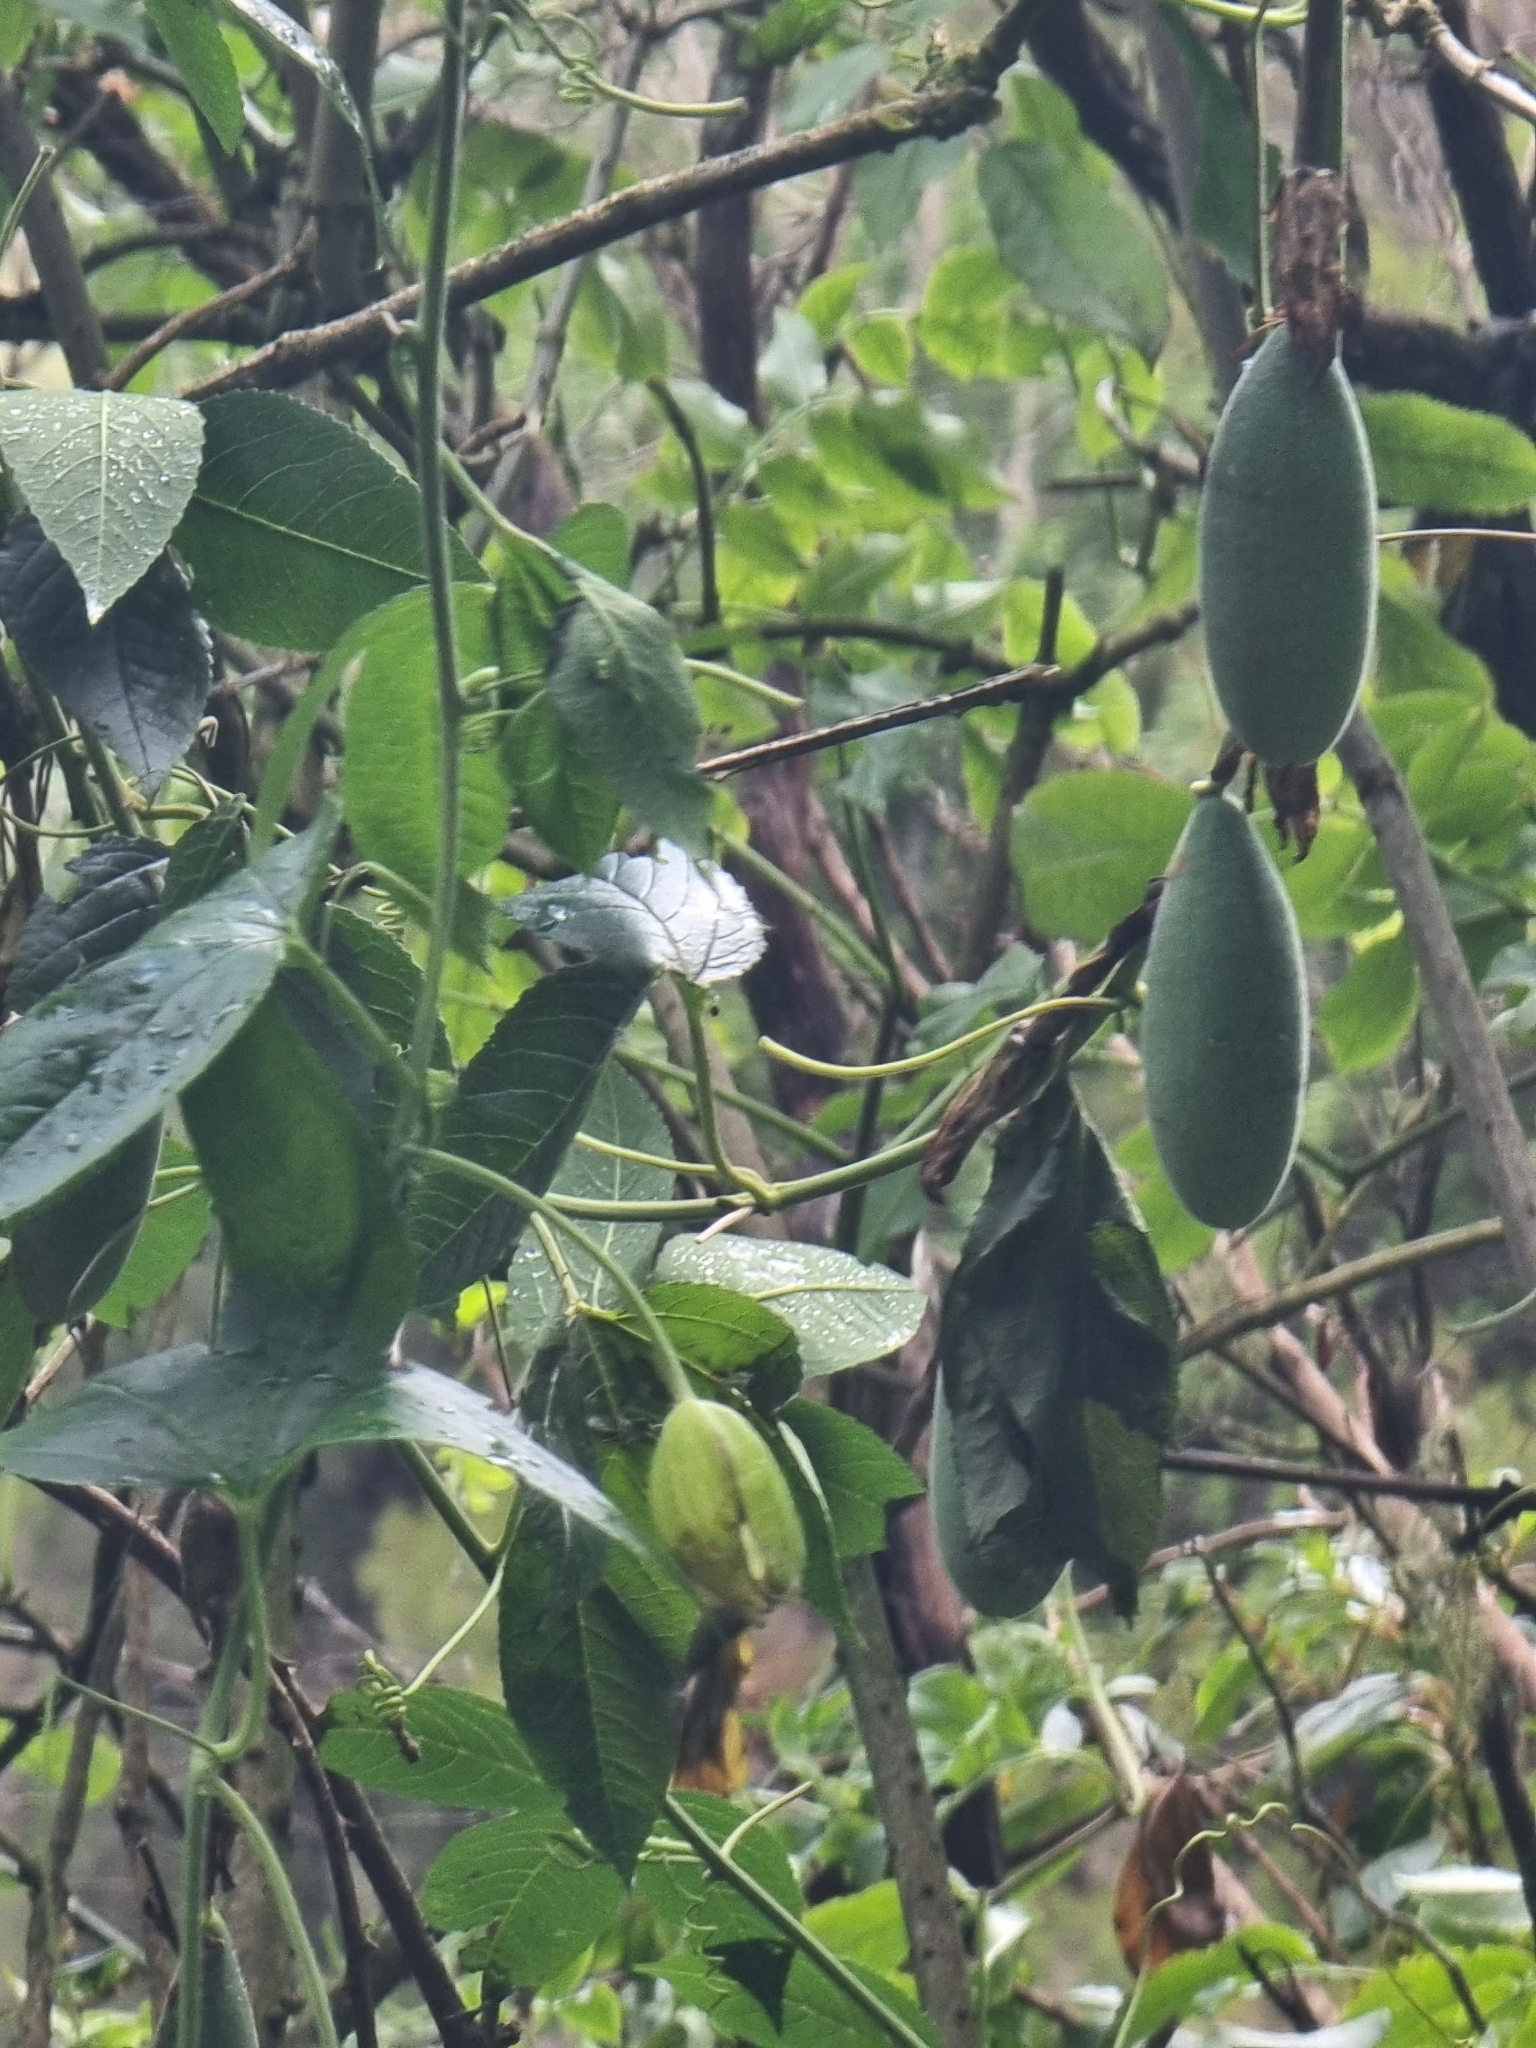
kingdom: Plantae
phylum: Tracheophyta
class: Magnoliopsida
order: Malpighiales
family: Passifloraceae
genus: Passiflora
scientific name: Passiflora tarminiana
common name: Banana poka
